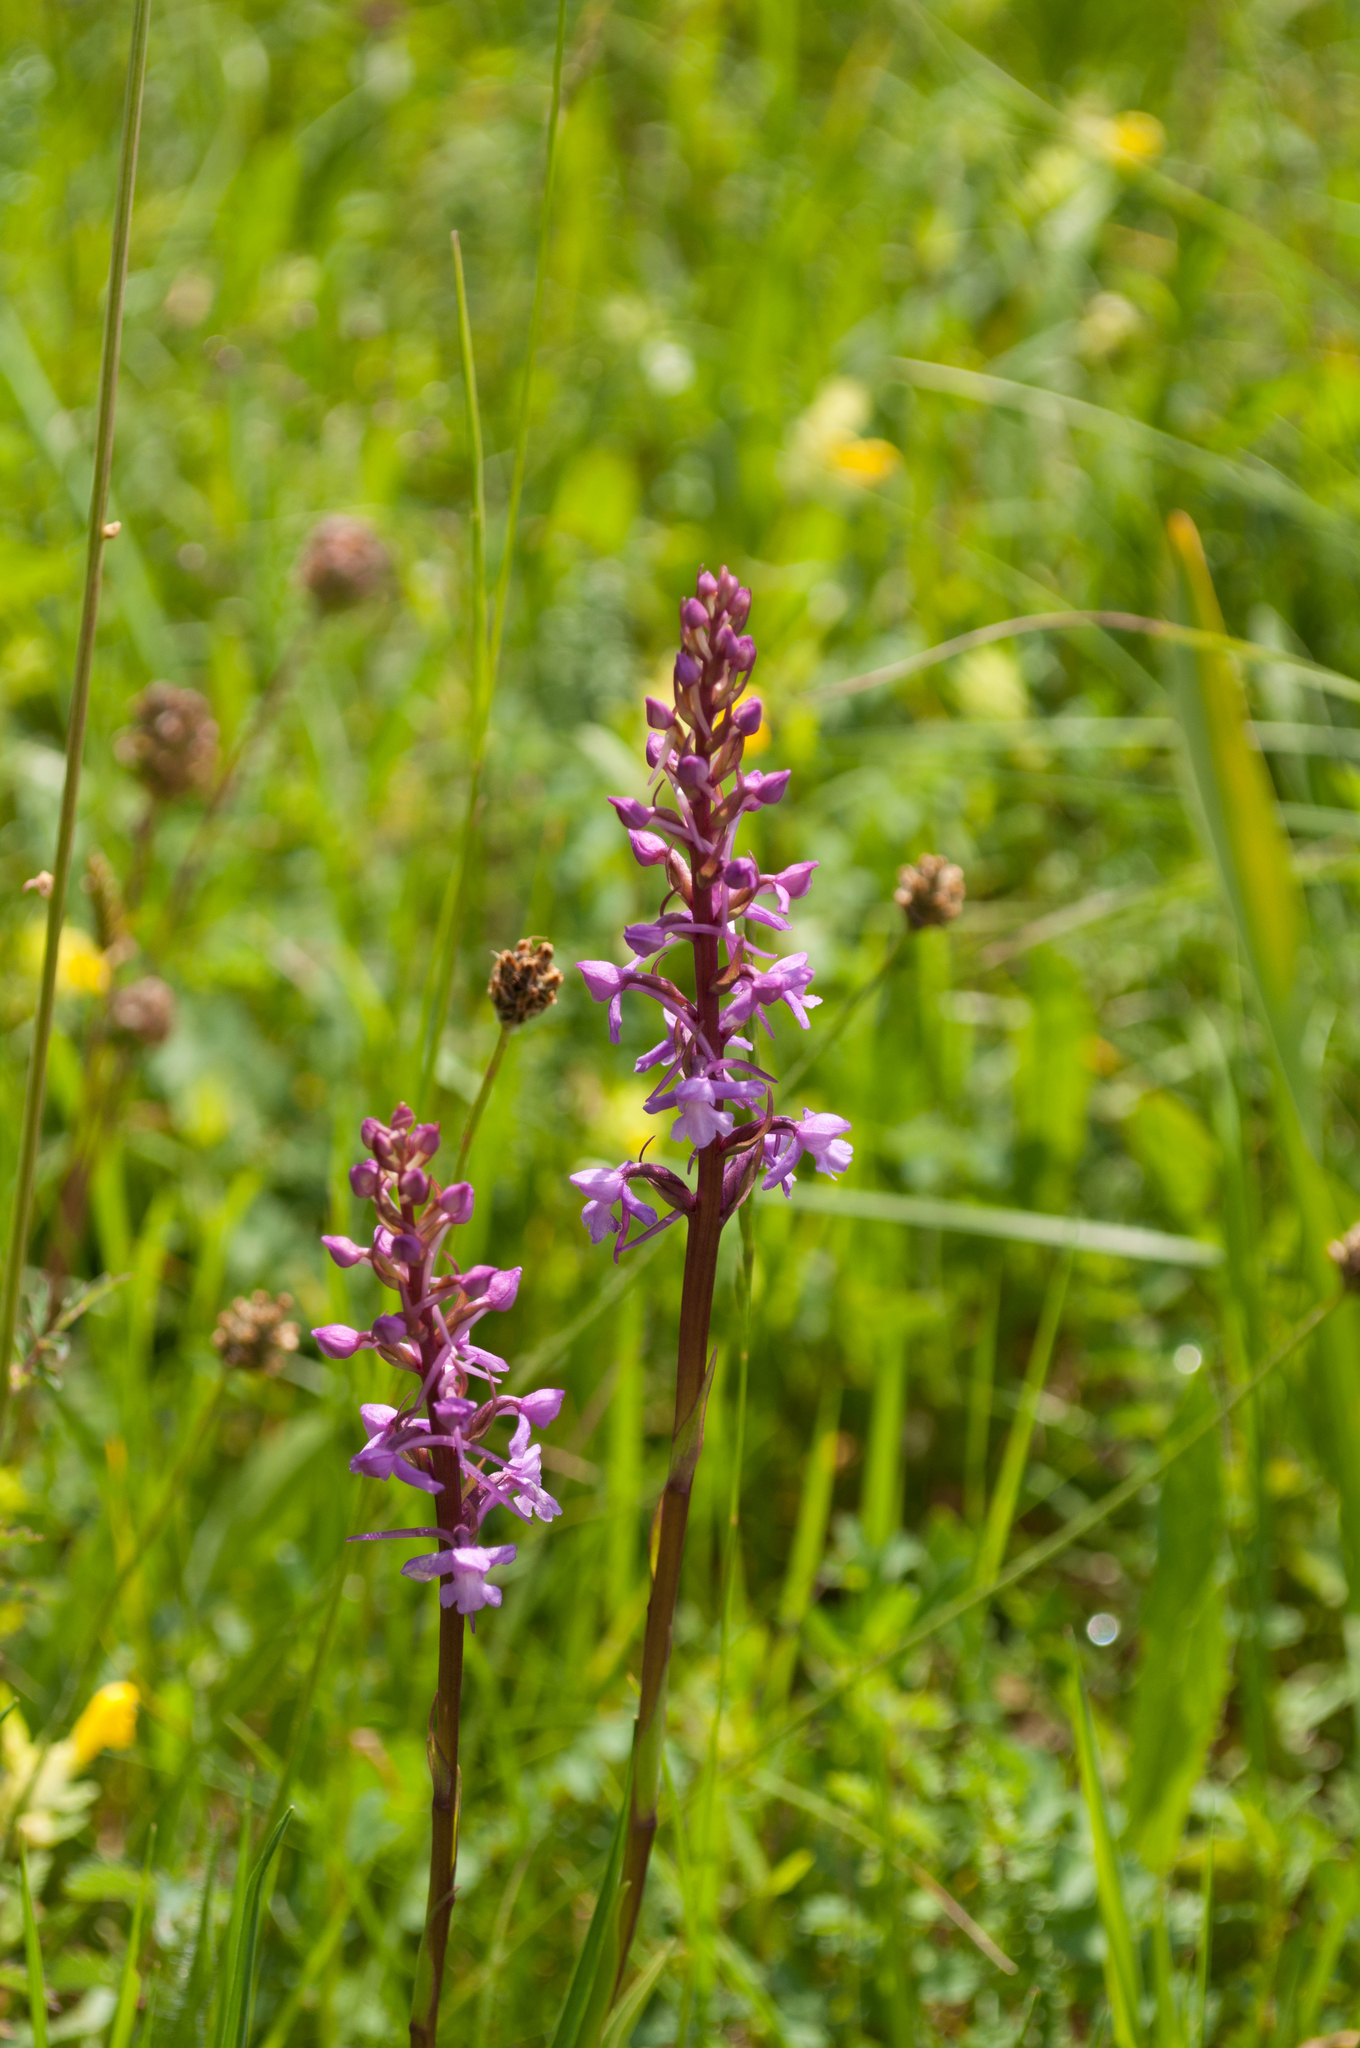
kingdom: Plantae
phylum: Tracheophyta
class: Liliopsida
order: Asparagales
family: Orchidaceae
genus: Gymnadenia
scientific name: Gymnadenia conopsea
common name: Fragrant orchid
